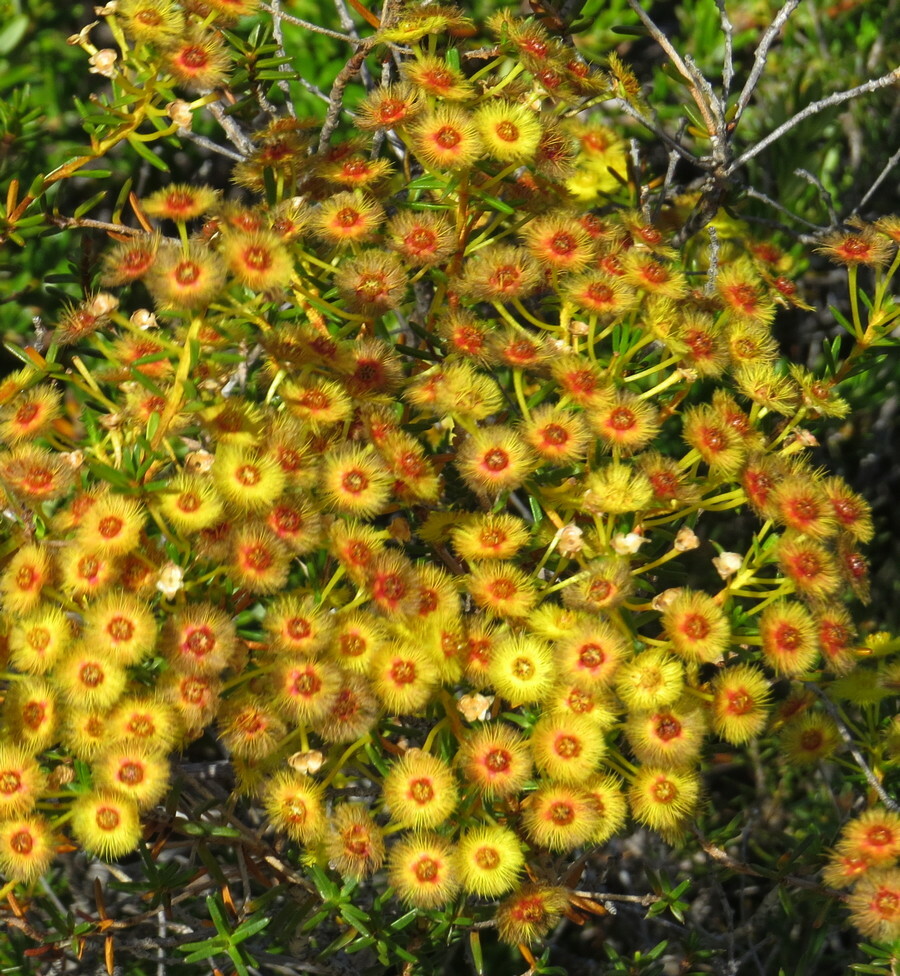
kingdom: Plantae
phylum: Tracheophyta
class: Magnoliopsida
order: Myrtales
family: Myrtaceae
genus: Verticordia
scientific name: Verticordia nobilis
